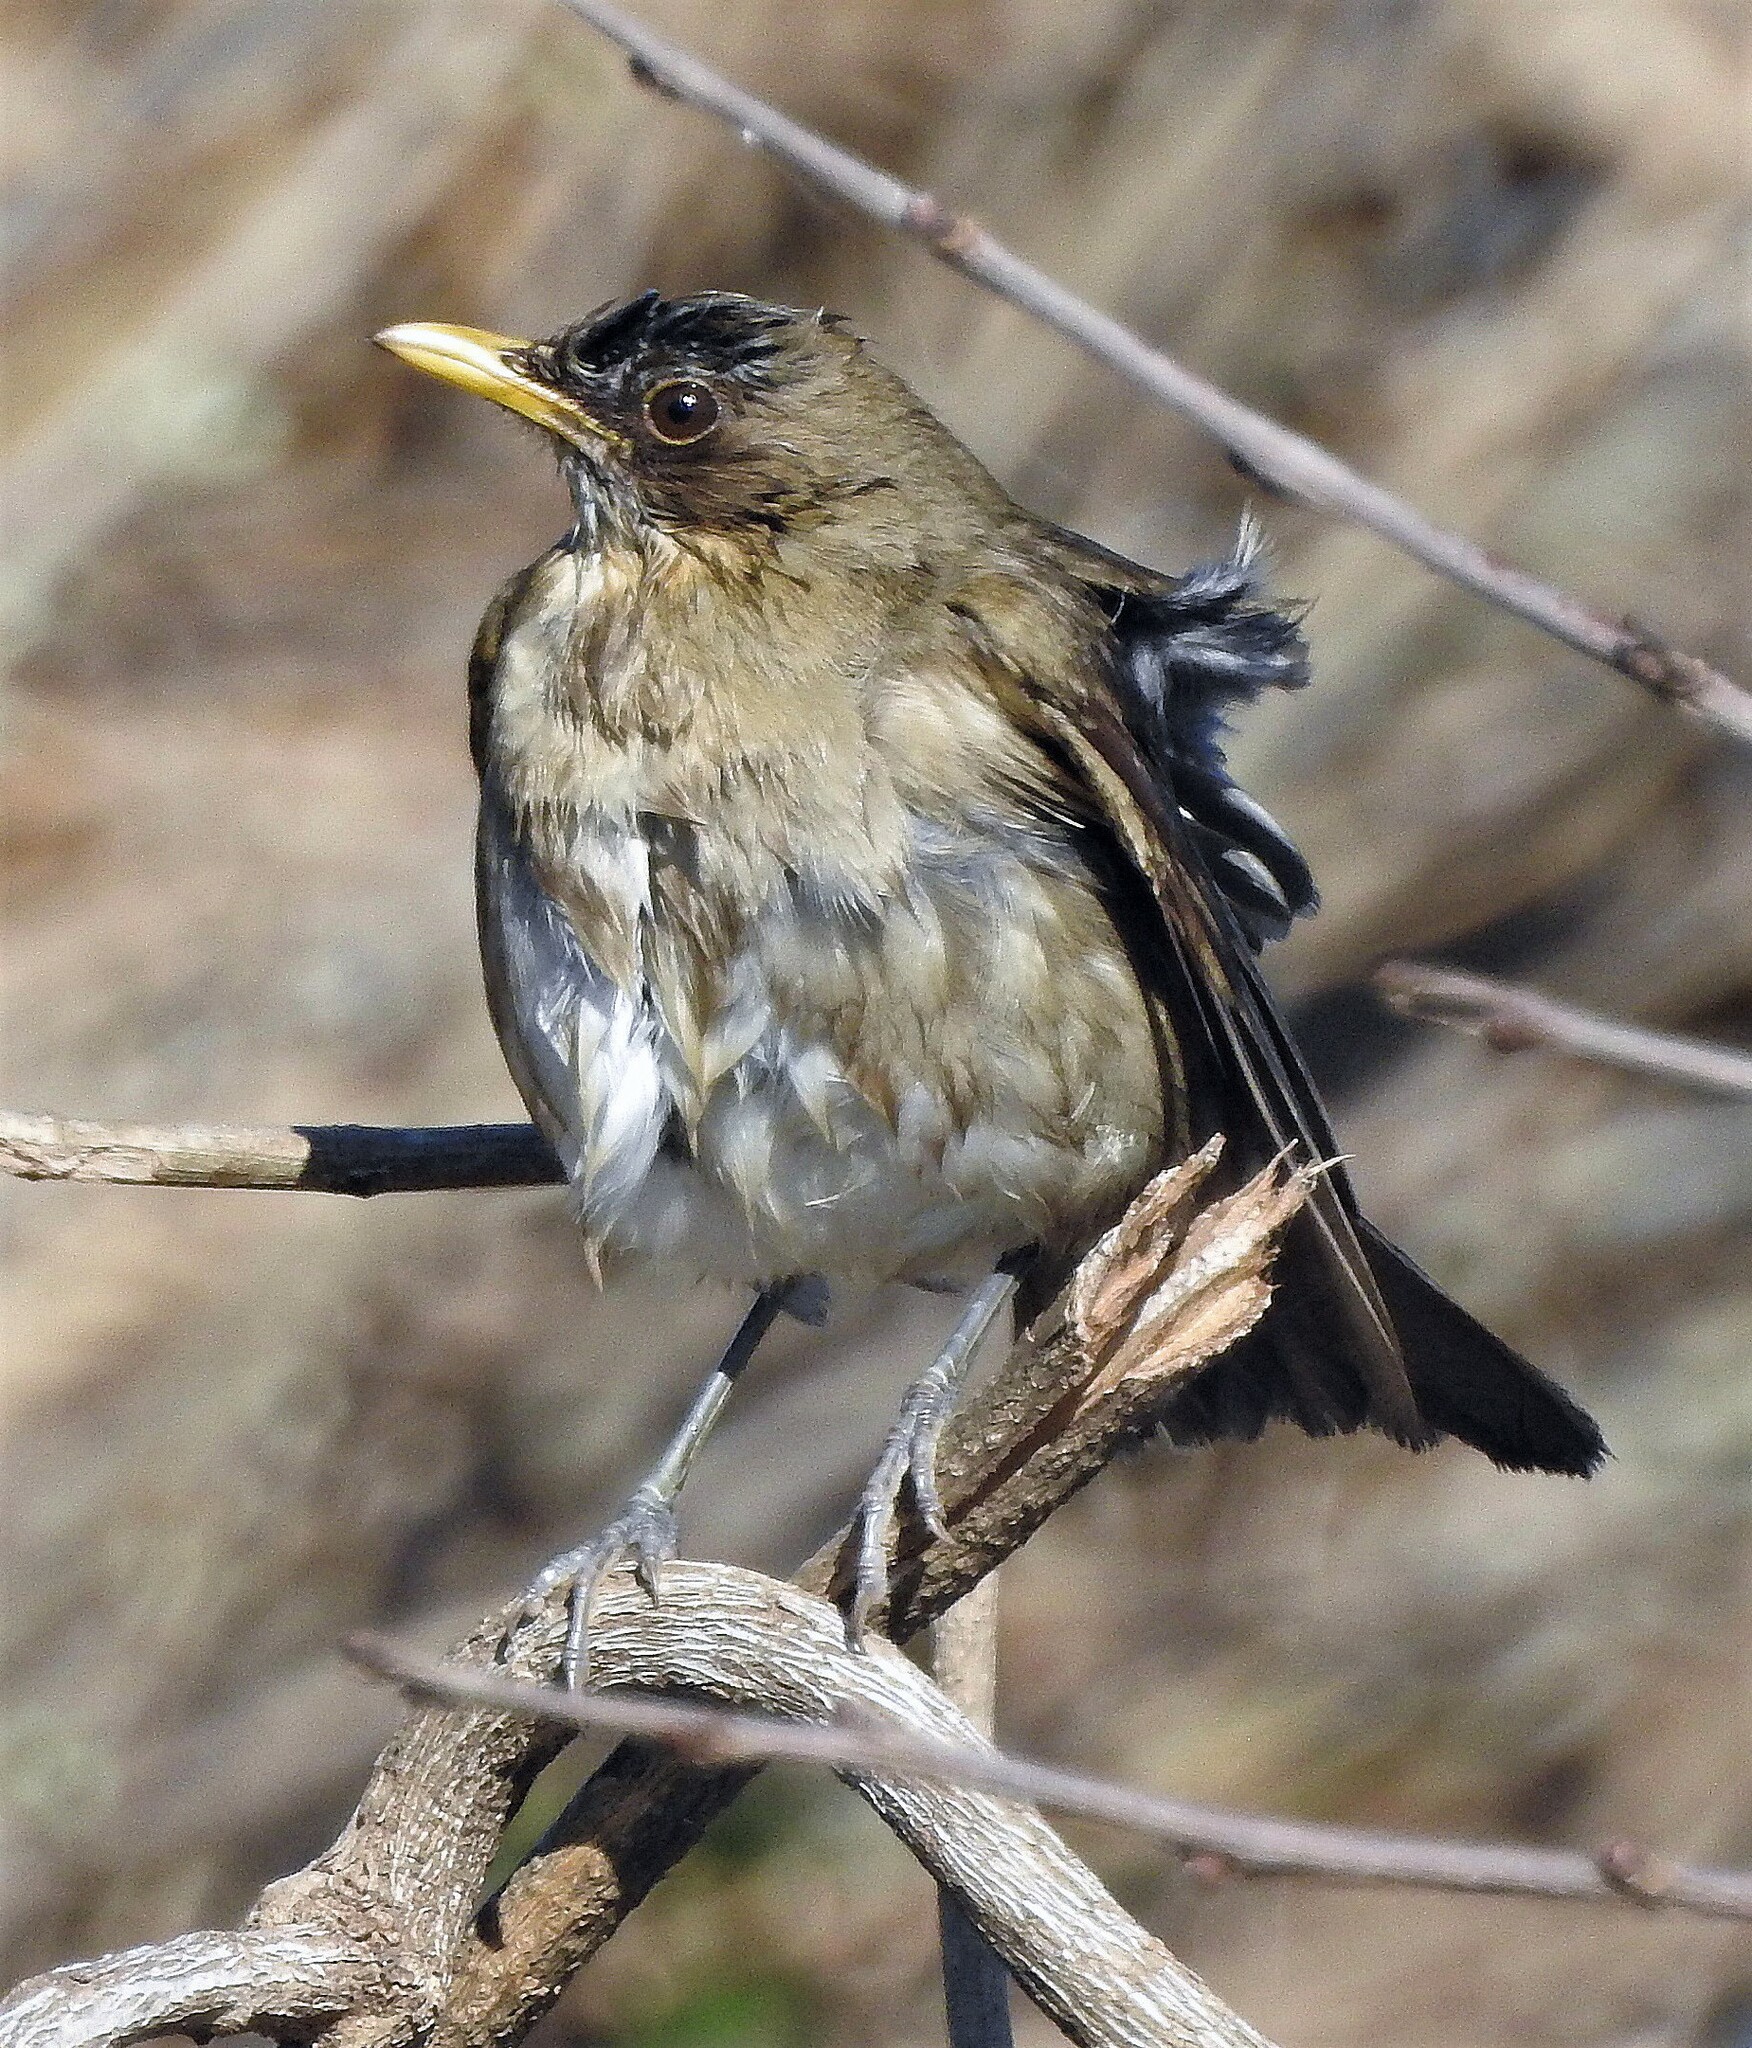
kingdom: Animalia
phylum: Chordata
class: Aves
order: Passeriformes
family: Turdidae
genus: Turdus
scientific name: Turdus amaurochalinus
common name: Creamy-bellied thrush
